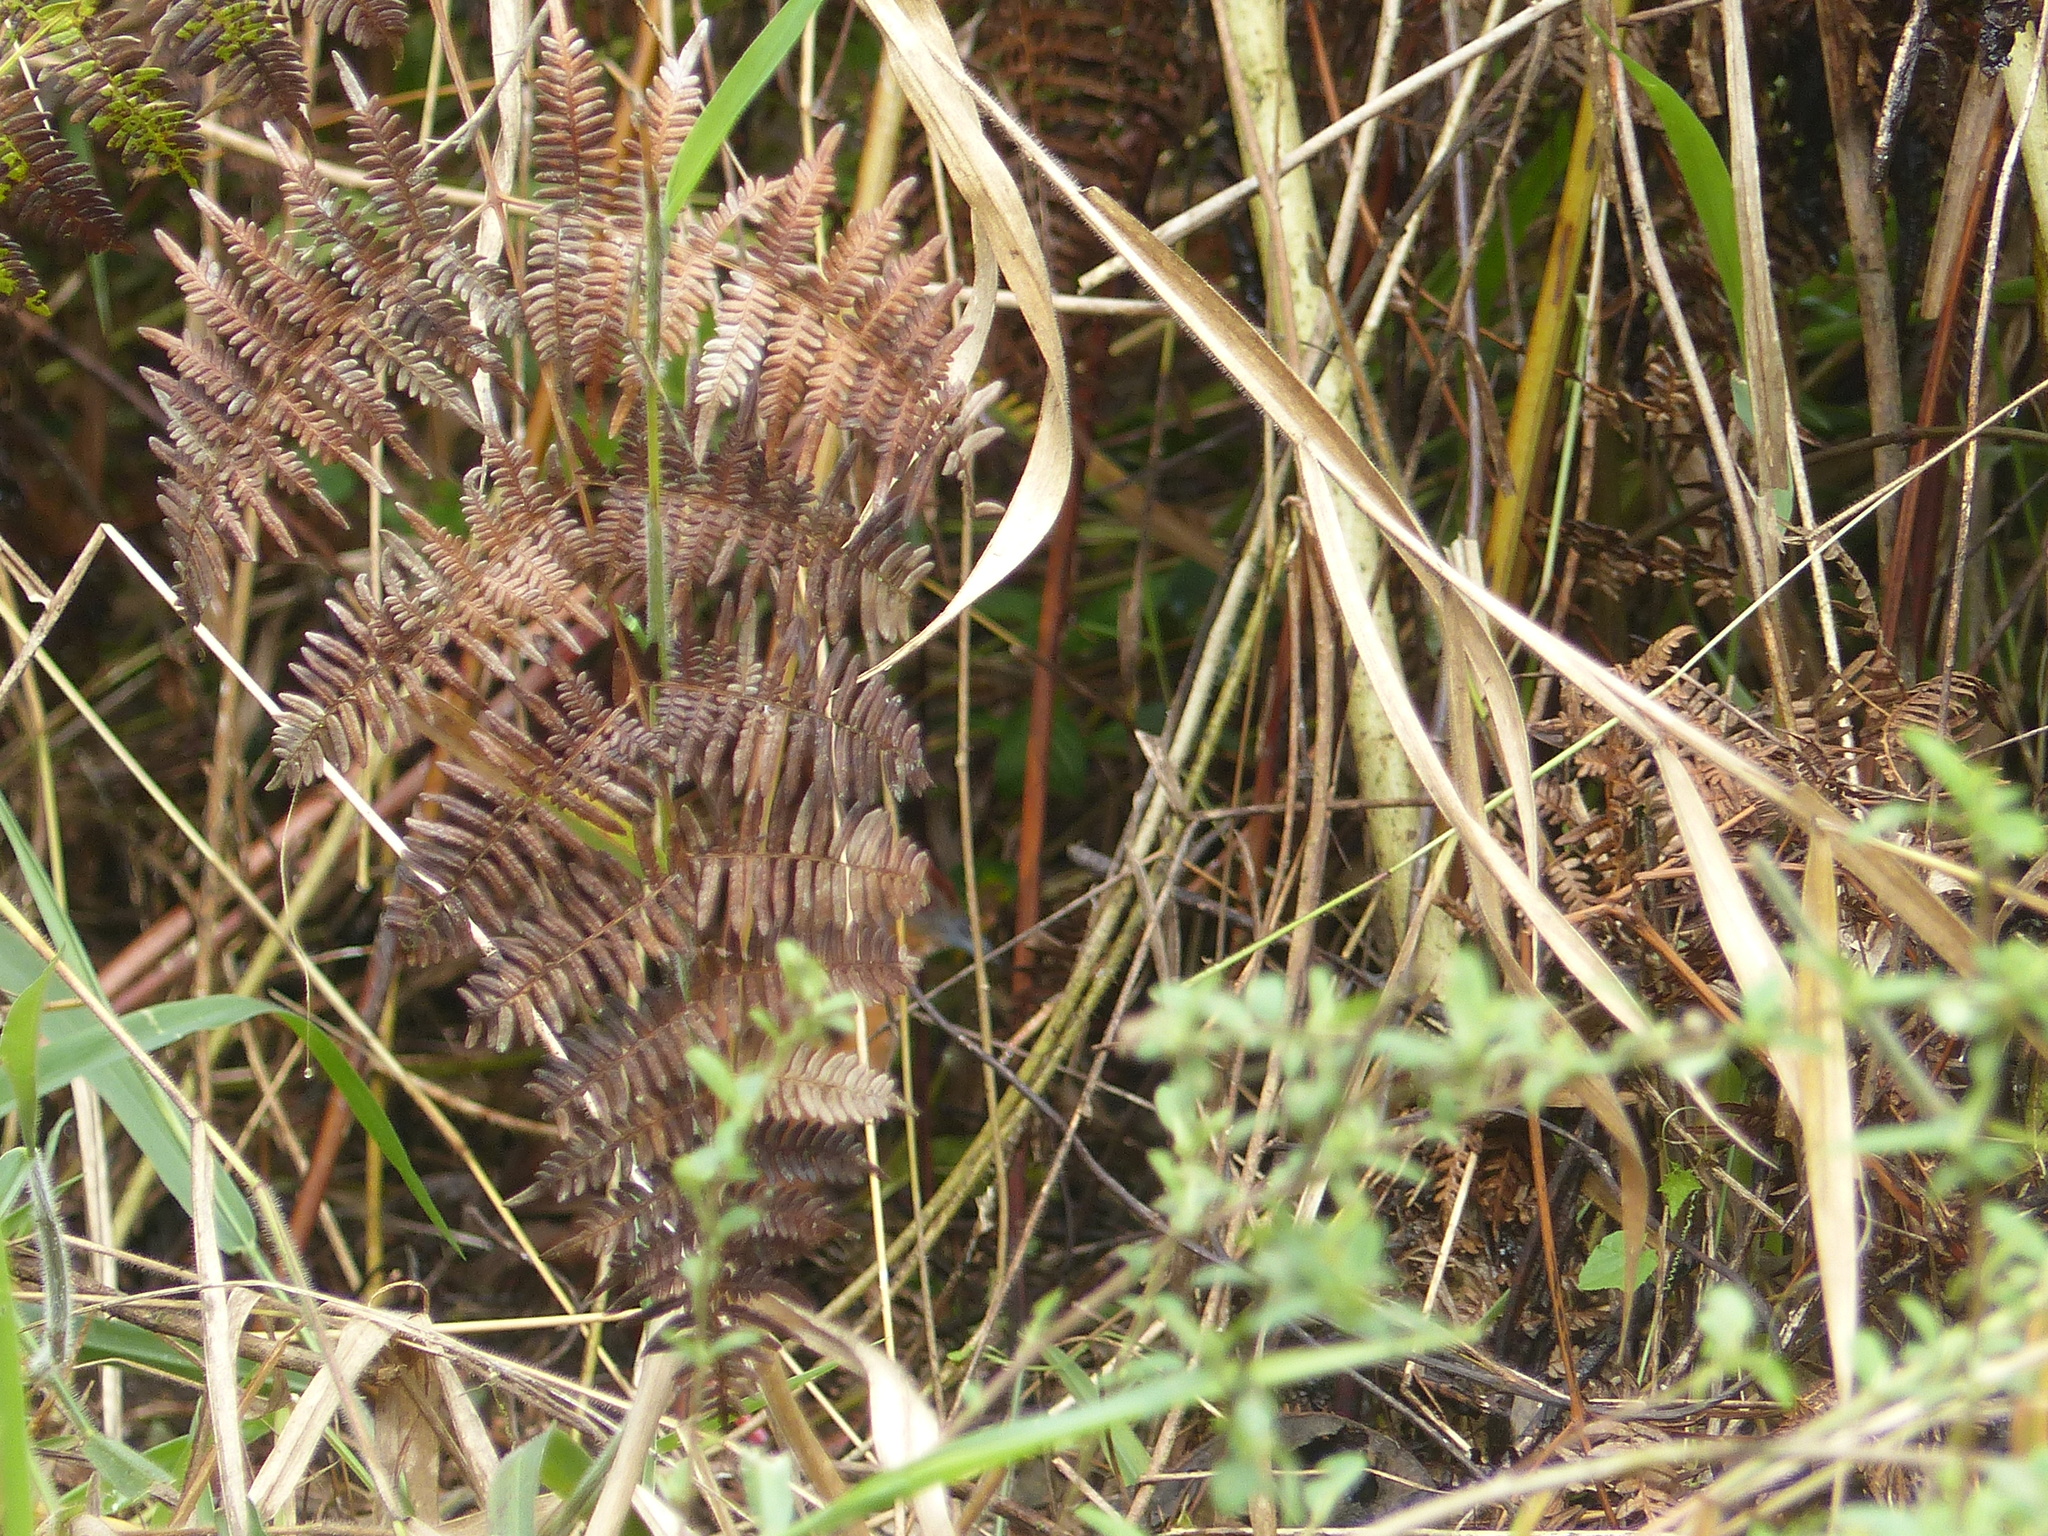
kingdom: Animalia
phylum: Chordata
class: Aves
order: Gruiformes
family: Rallidae
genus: Anurolimnas
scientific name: Anurolimnas viridis
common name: Russet-crowned crake
